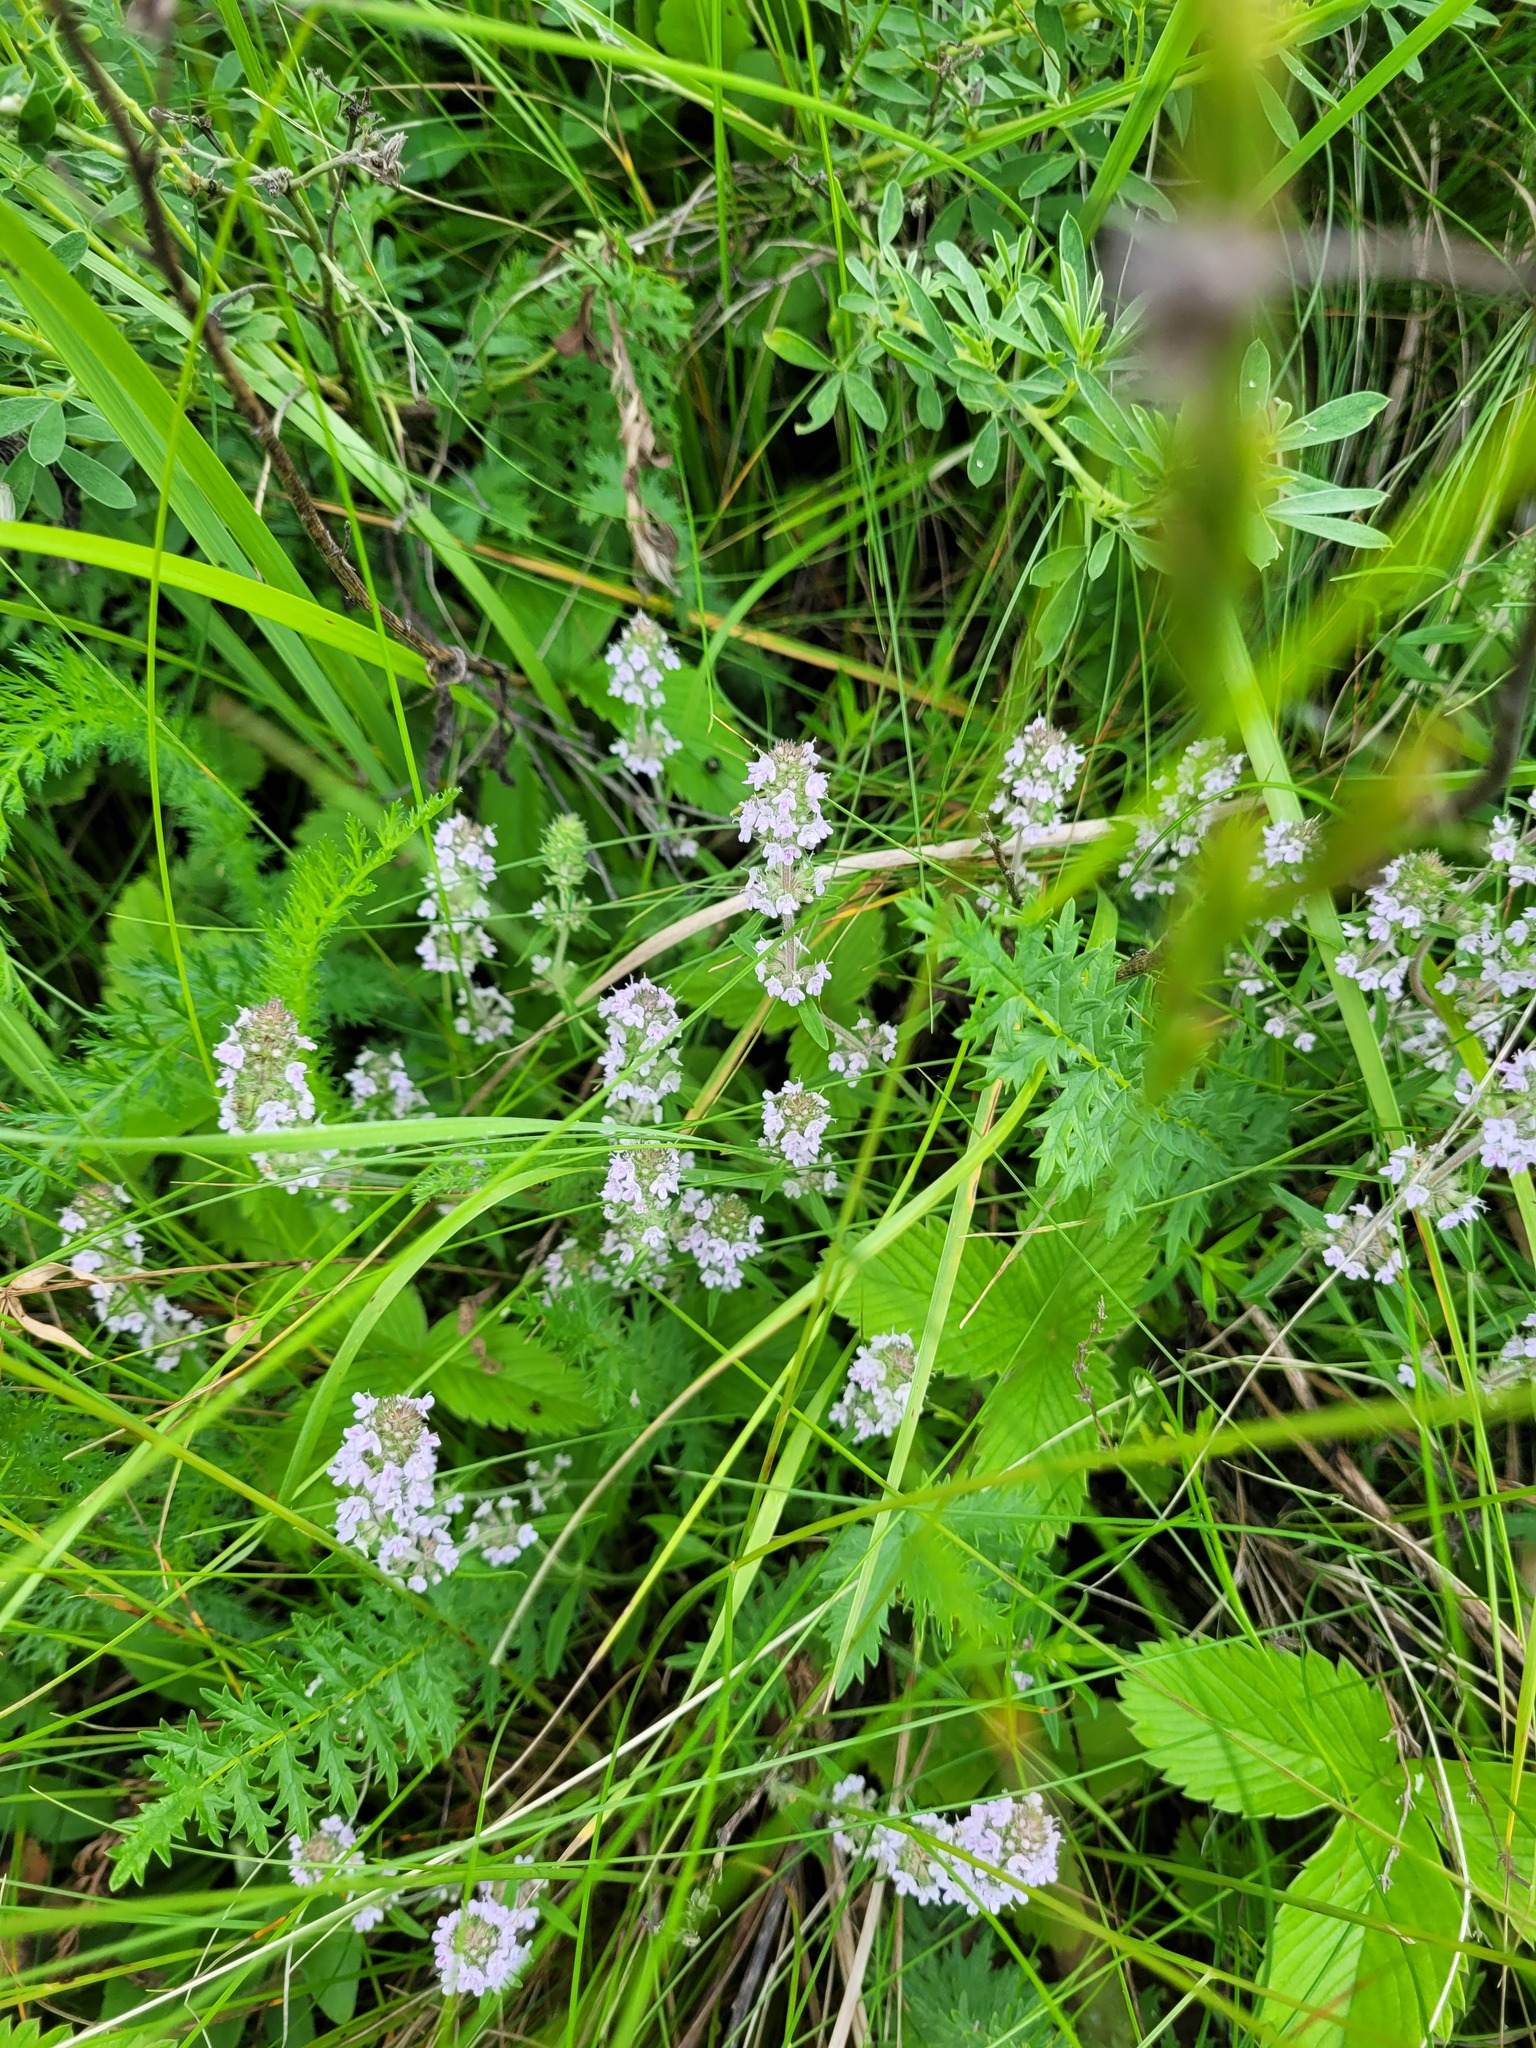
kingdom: Plantae
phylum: Tracheophyta
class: Magnoliopsida
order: Lamiales
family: Lamiaceae
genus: Thymus
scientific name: Thymus pannonicus
